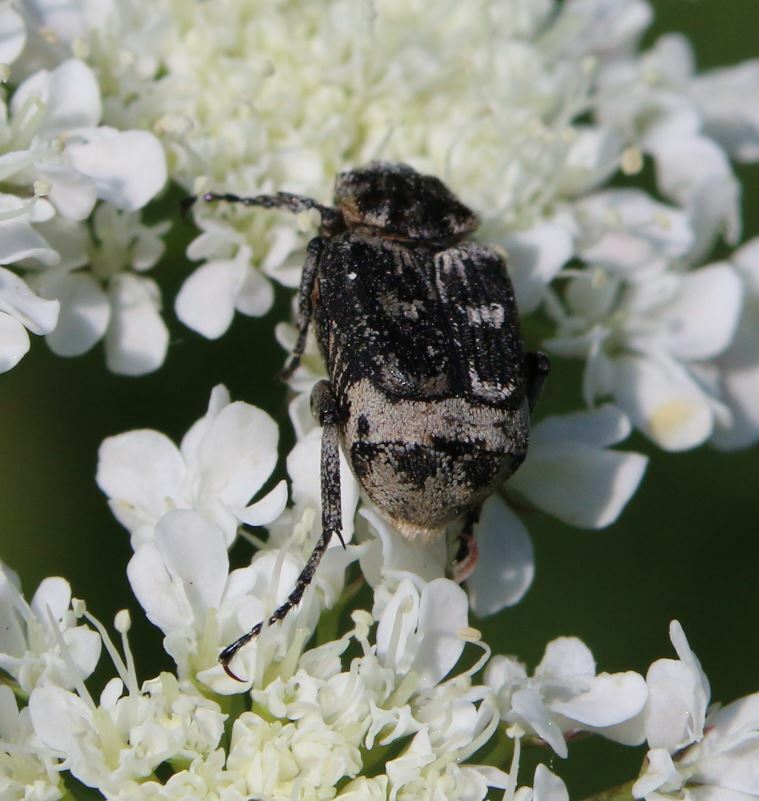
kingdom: Animalia
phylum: Arthropoda
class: Insecta
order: Coleoptera
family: Scarabaeidae
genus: Valgus
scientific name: Valgus hemipterus
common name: Bug flower chafer
